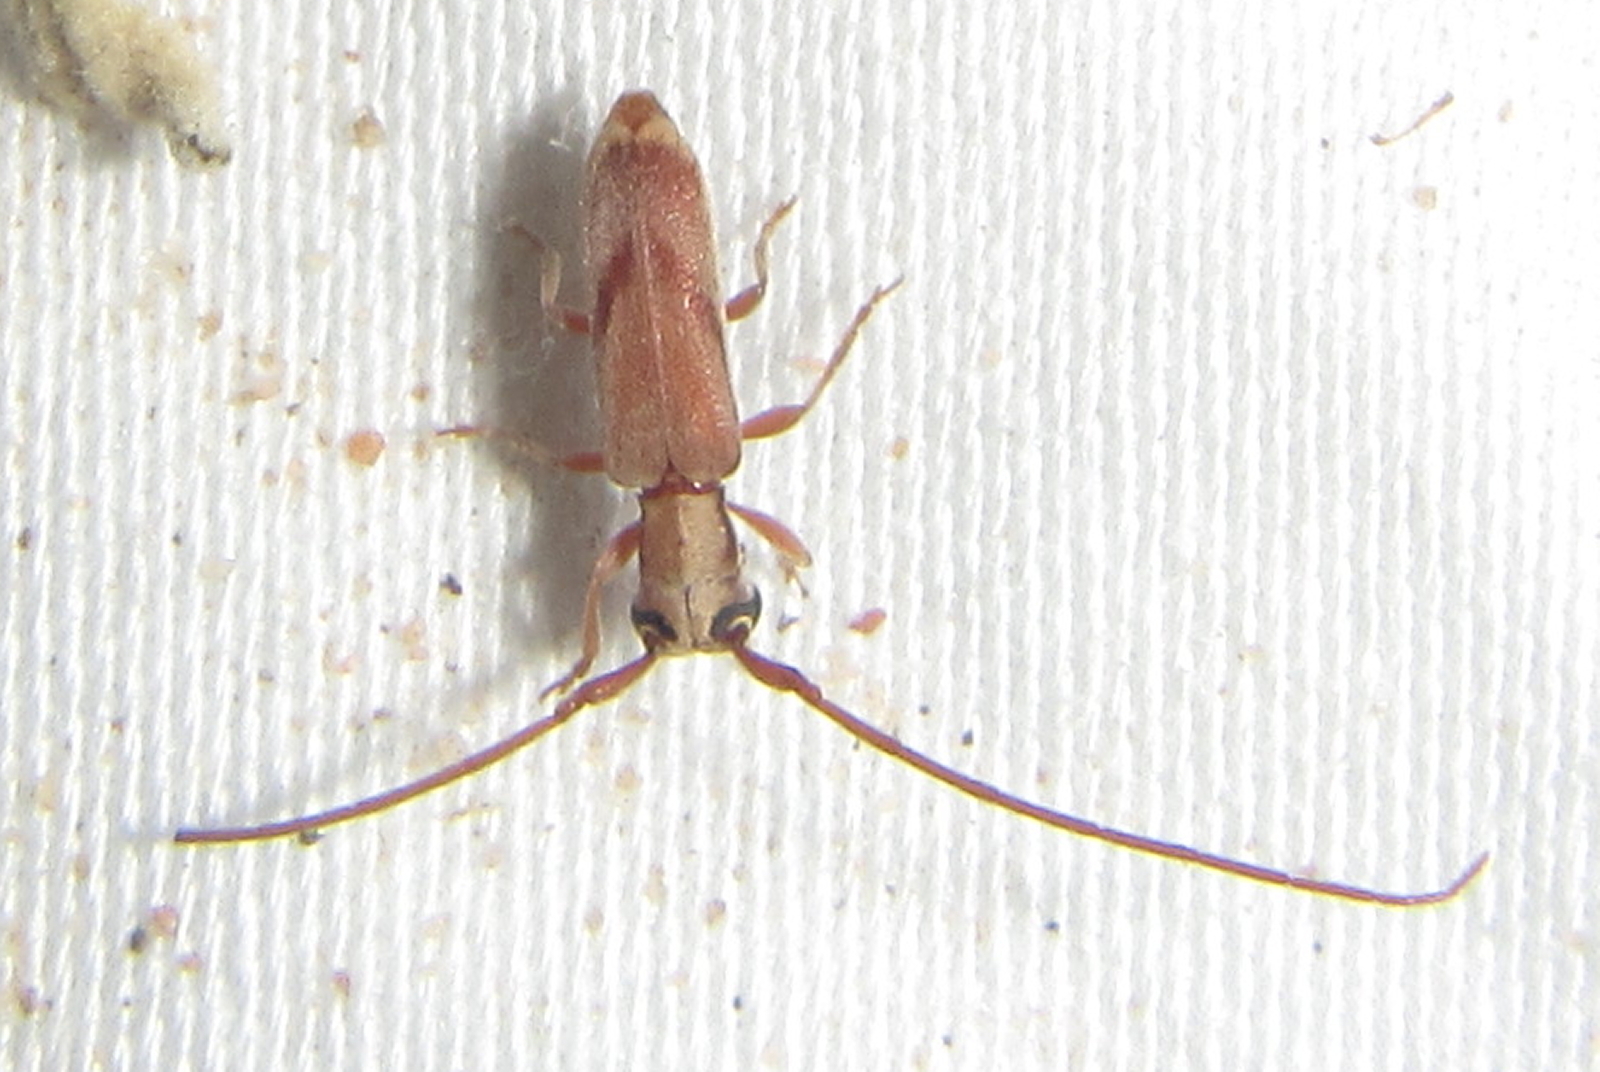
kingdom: Animalia
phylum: Arthropoda
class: Insecta
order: Coleoptera
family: Cerambycidae
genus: Eunidia
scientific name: Eunidia obliquevittipennis
